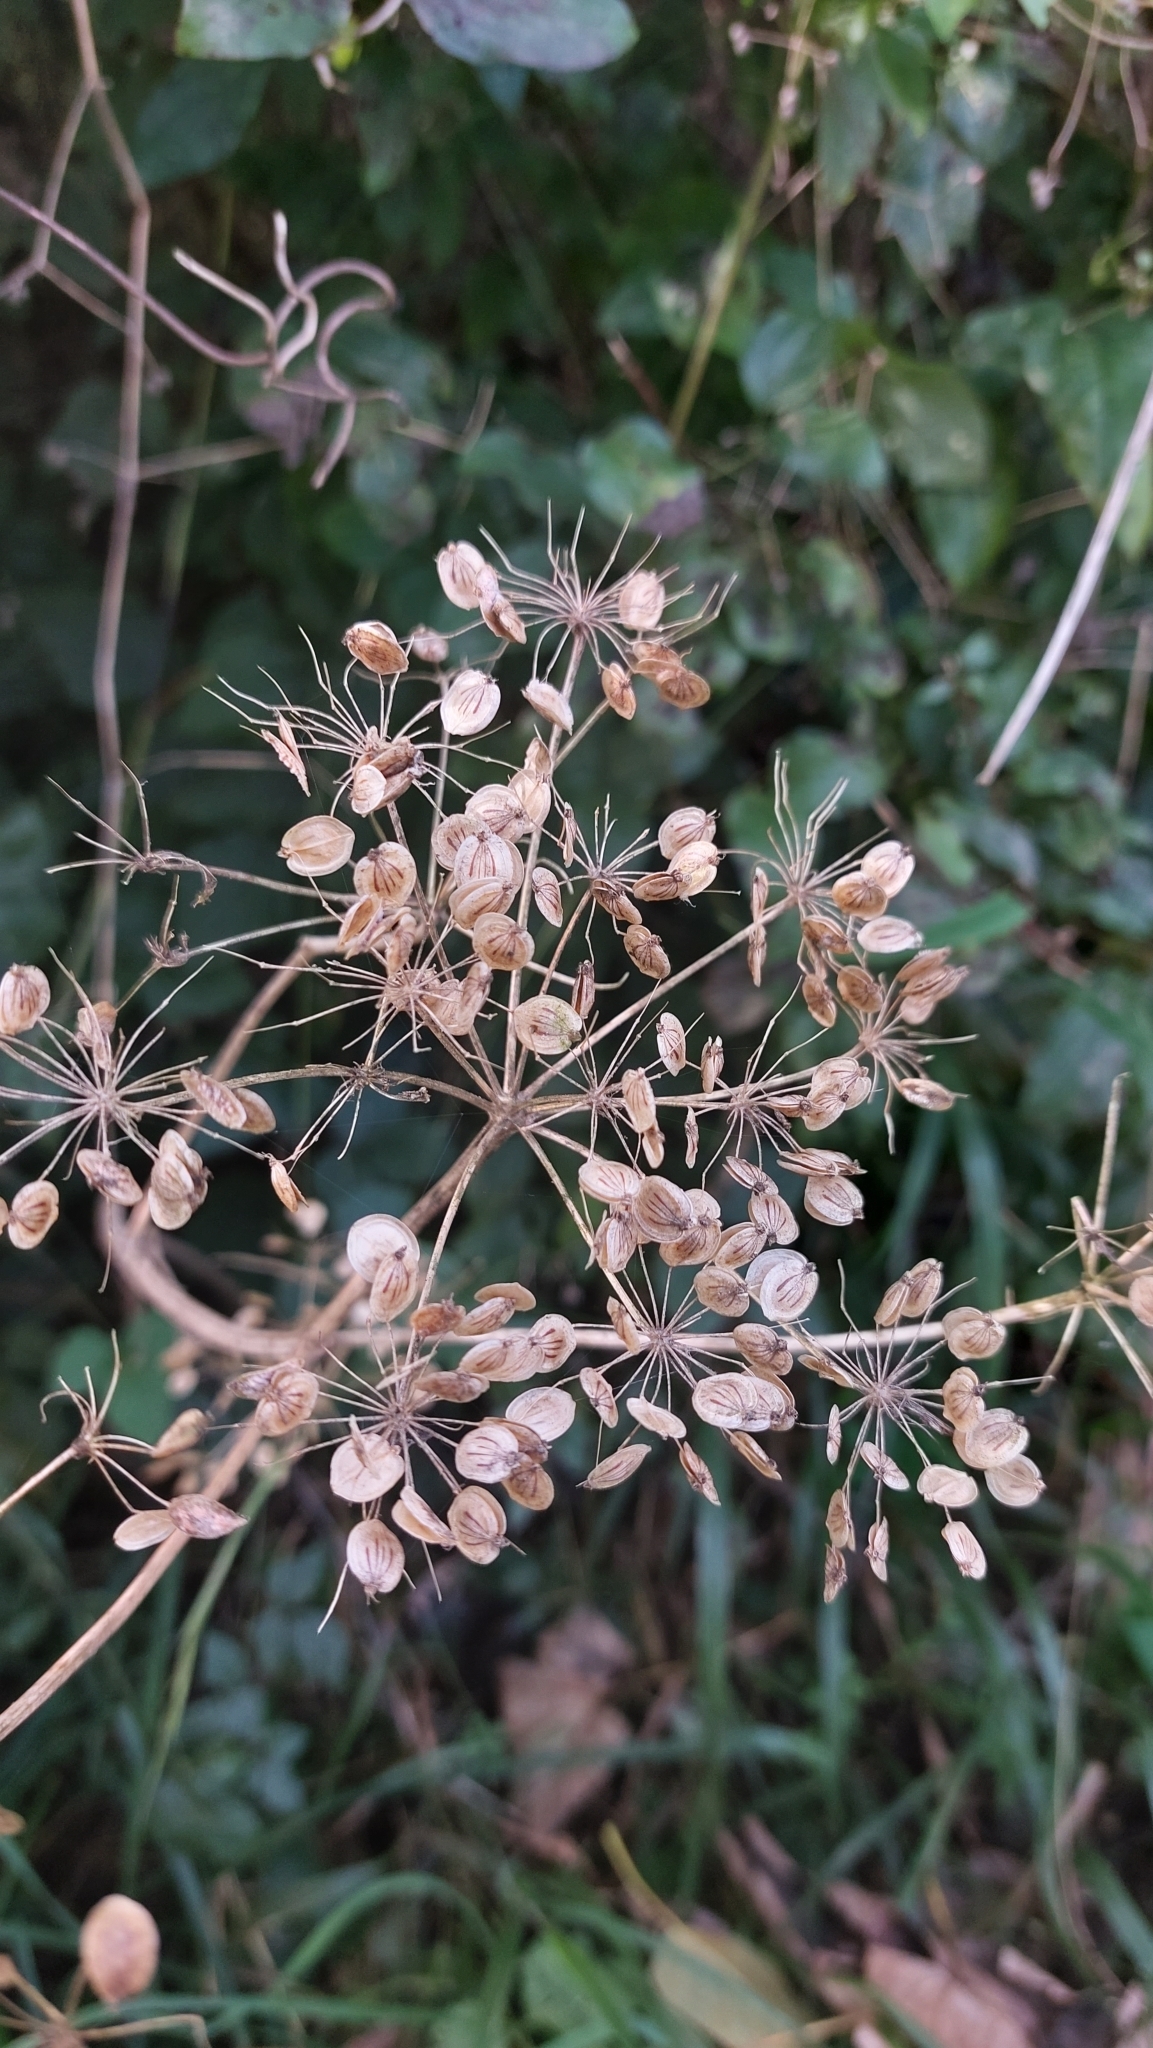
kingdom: Plantae
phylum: Tracheophyta
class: Magnoliopsida
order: Apiales
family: Apiaceae
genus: Heracleum
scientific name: Heracleum sphondylium
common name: Hogweed
